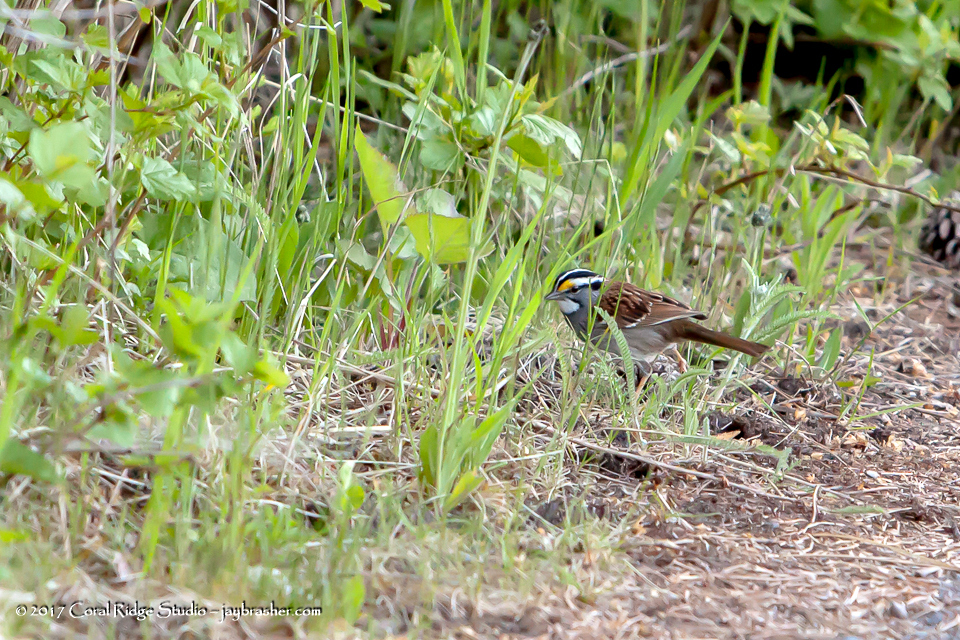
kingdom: Animalia
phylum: Chordata
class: Aves
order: Passeriformes
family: Passerellidae
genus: Zonotrichia
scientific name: Zonotrichia albicollis
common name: White-throated sparrow
